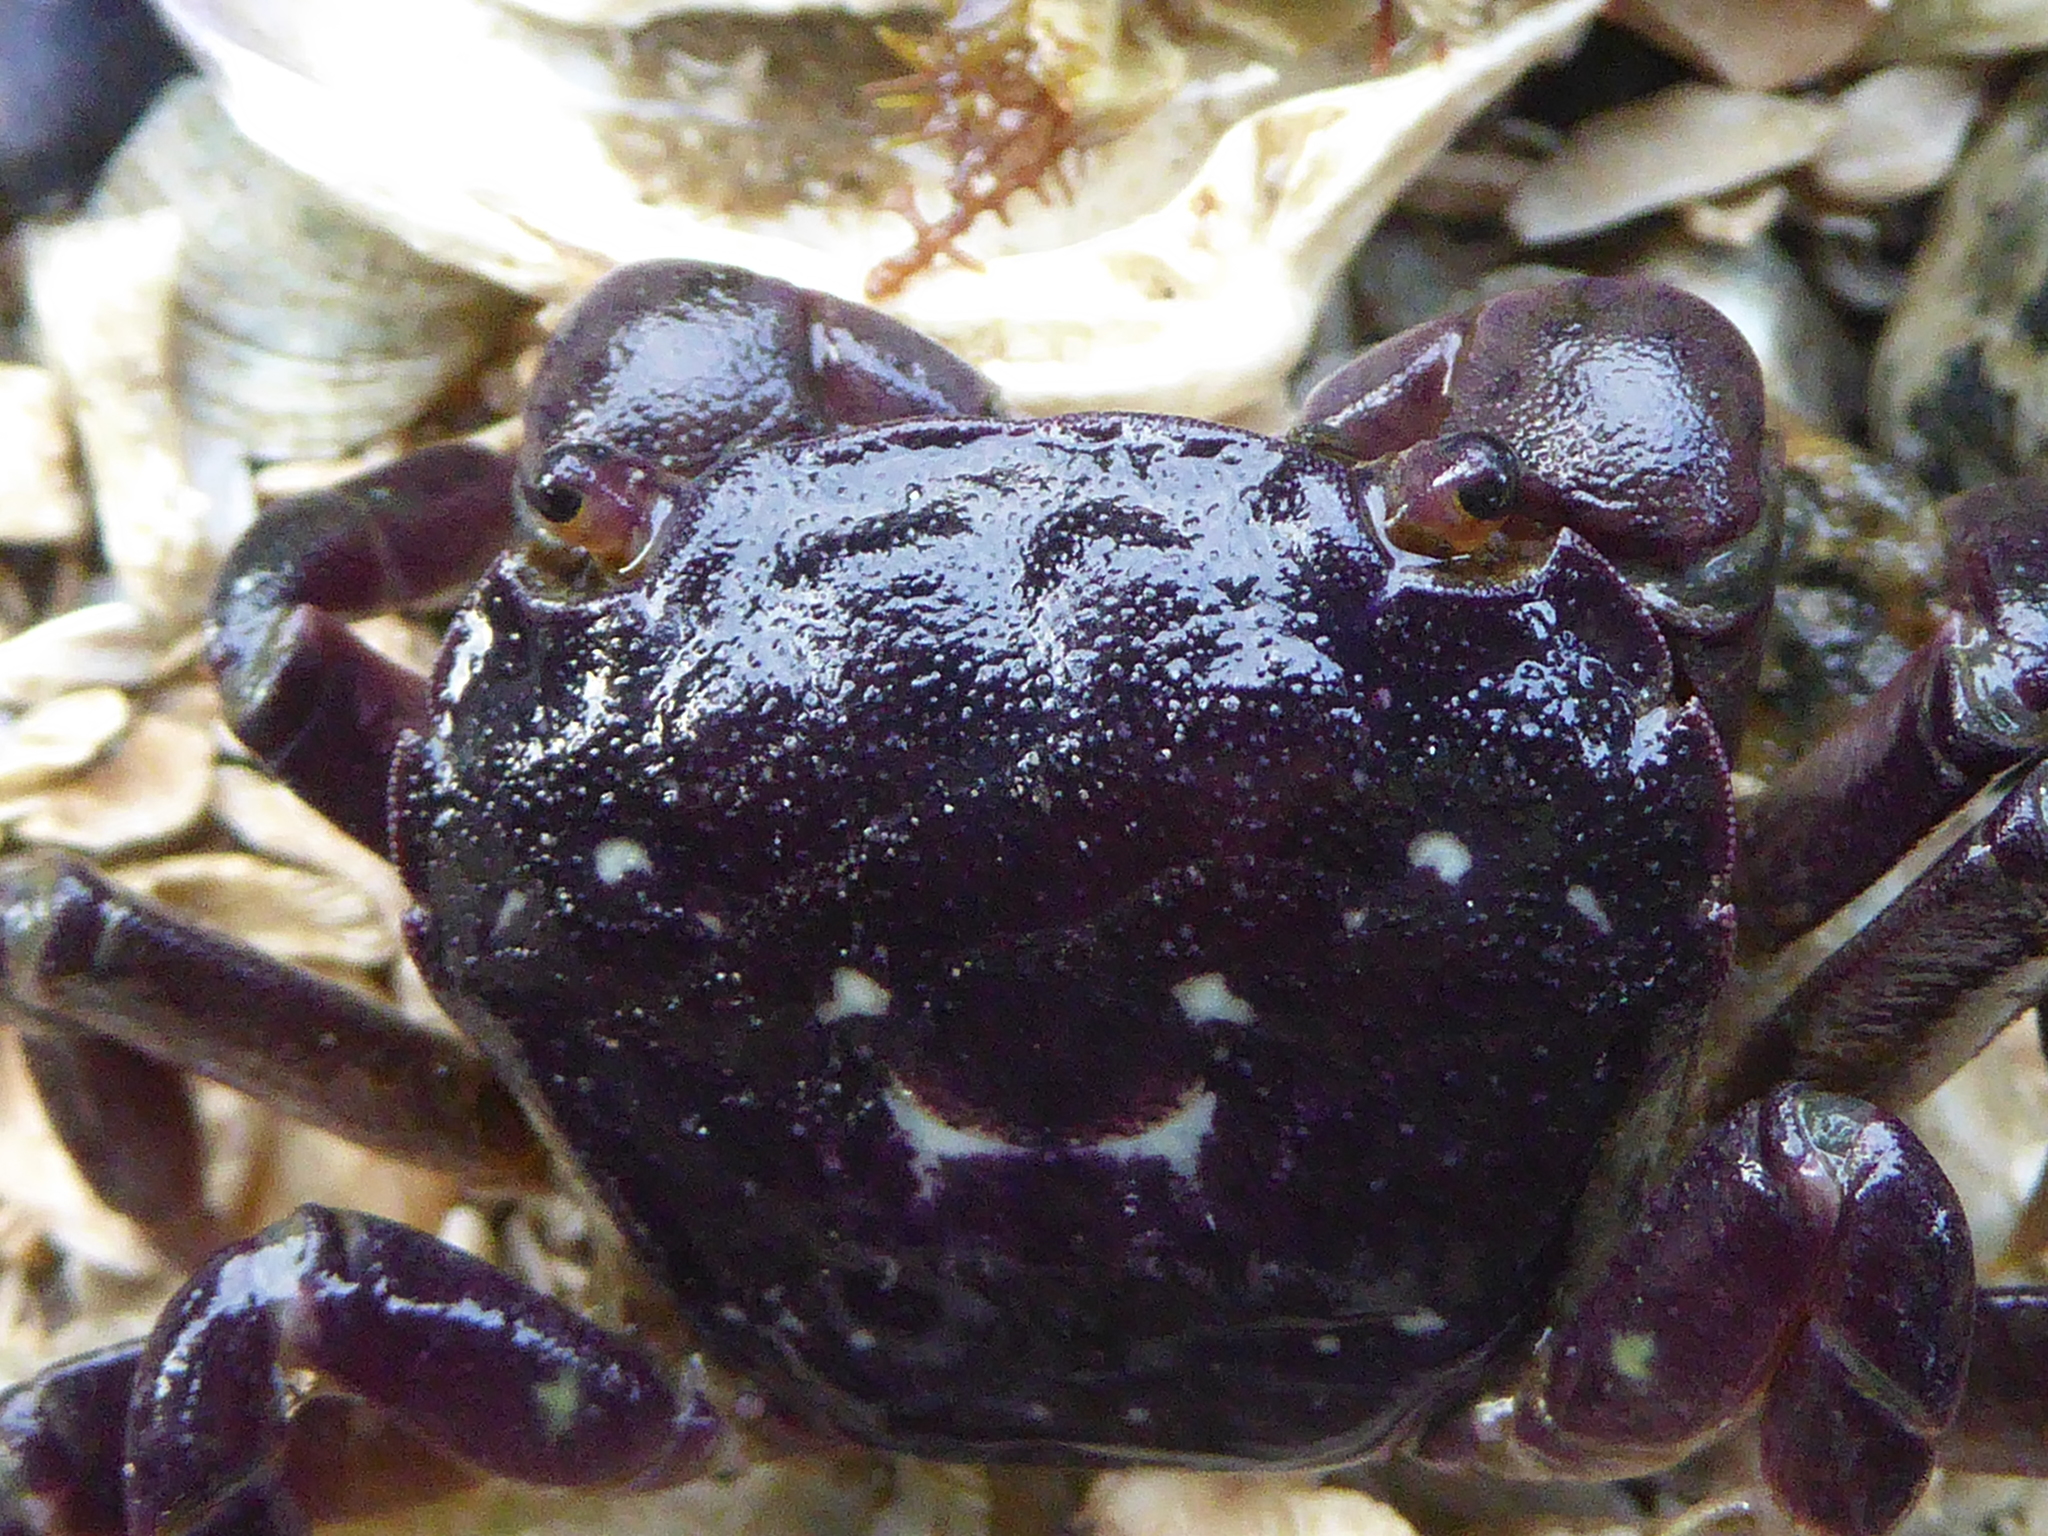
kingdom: Animalia
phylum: Arthropoda
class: Malacostraca
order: Decapoda
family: Varunidae
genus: Hemigrapsus
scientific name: Hemigrapsus nudus
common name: Purple shore crab
